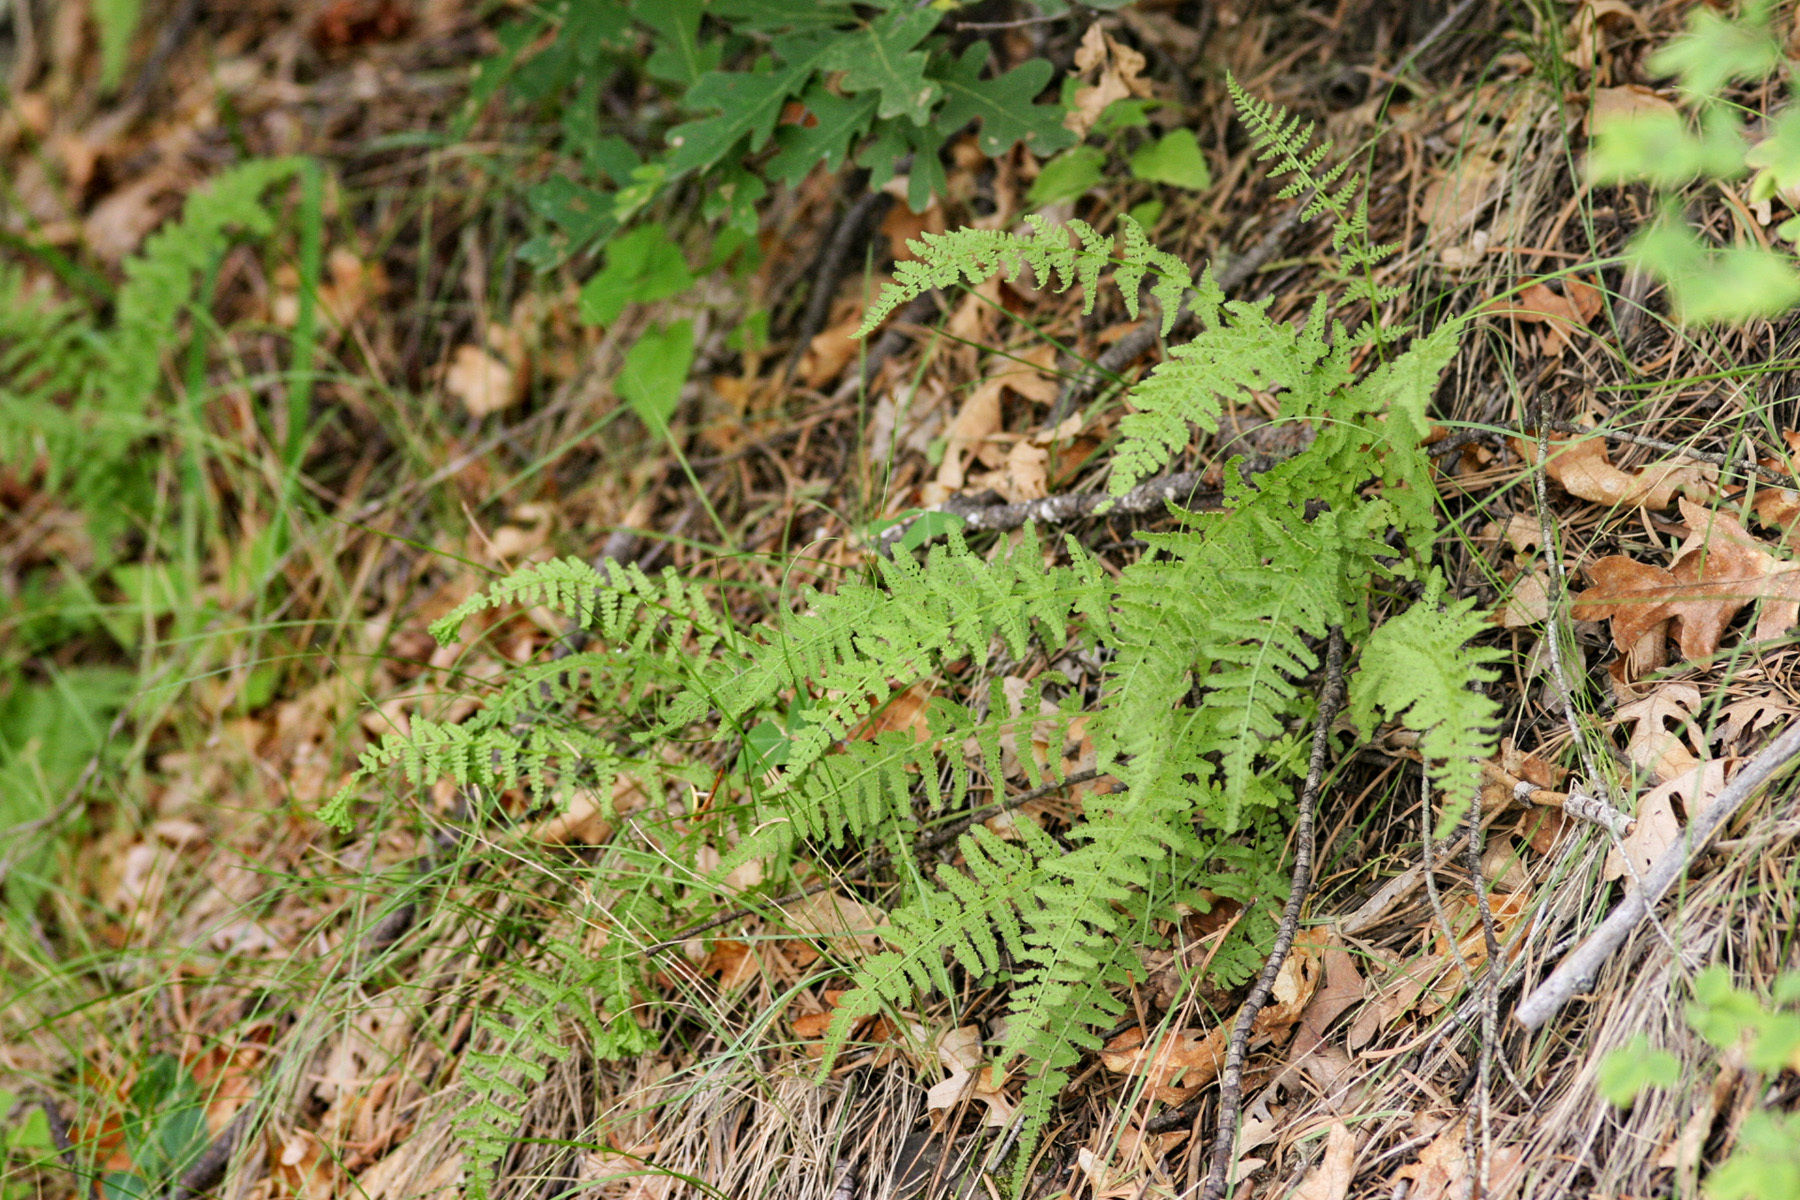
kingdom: Plantae
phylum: Tracheophyta
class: Polypodiopsida
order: Polypodiales
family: Woodsiaceae
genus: Physematium
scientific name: Physematium phillipsii
